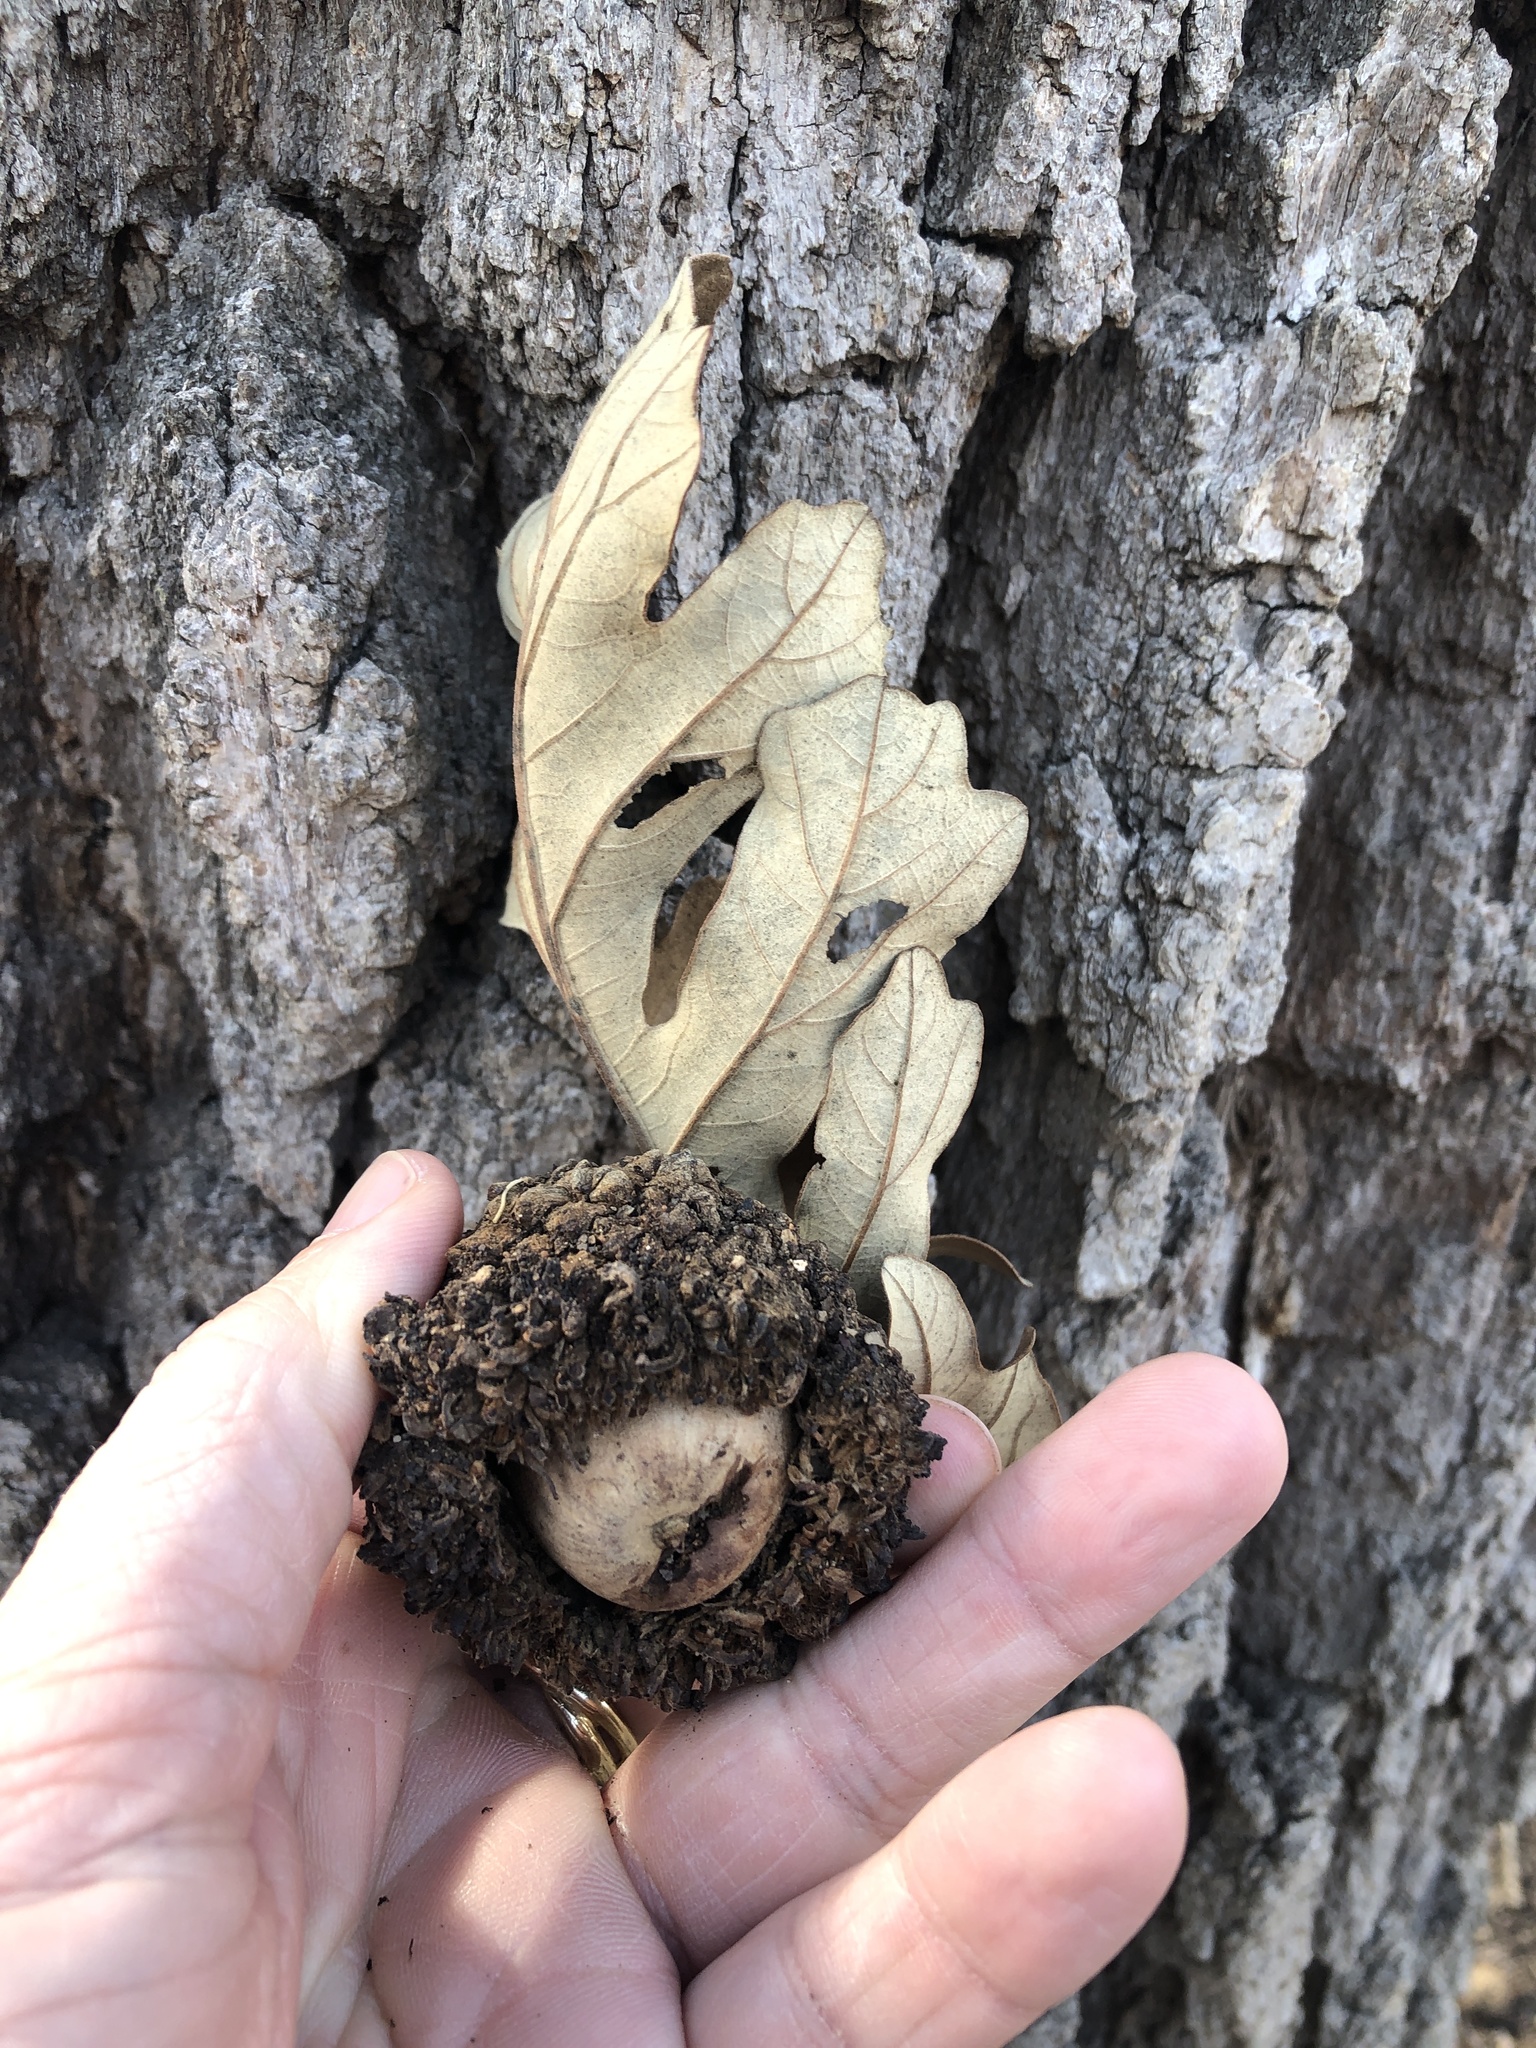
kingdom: Plantae
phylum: Tracheophyta
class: Magnoliopsida
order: Fagales
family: Fagaceae
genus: Quercus
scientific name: Quercus macrocarpa
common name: Bur oak
